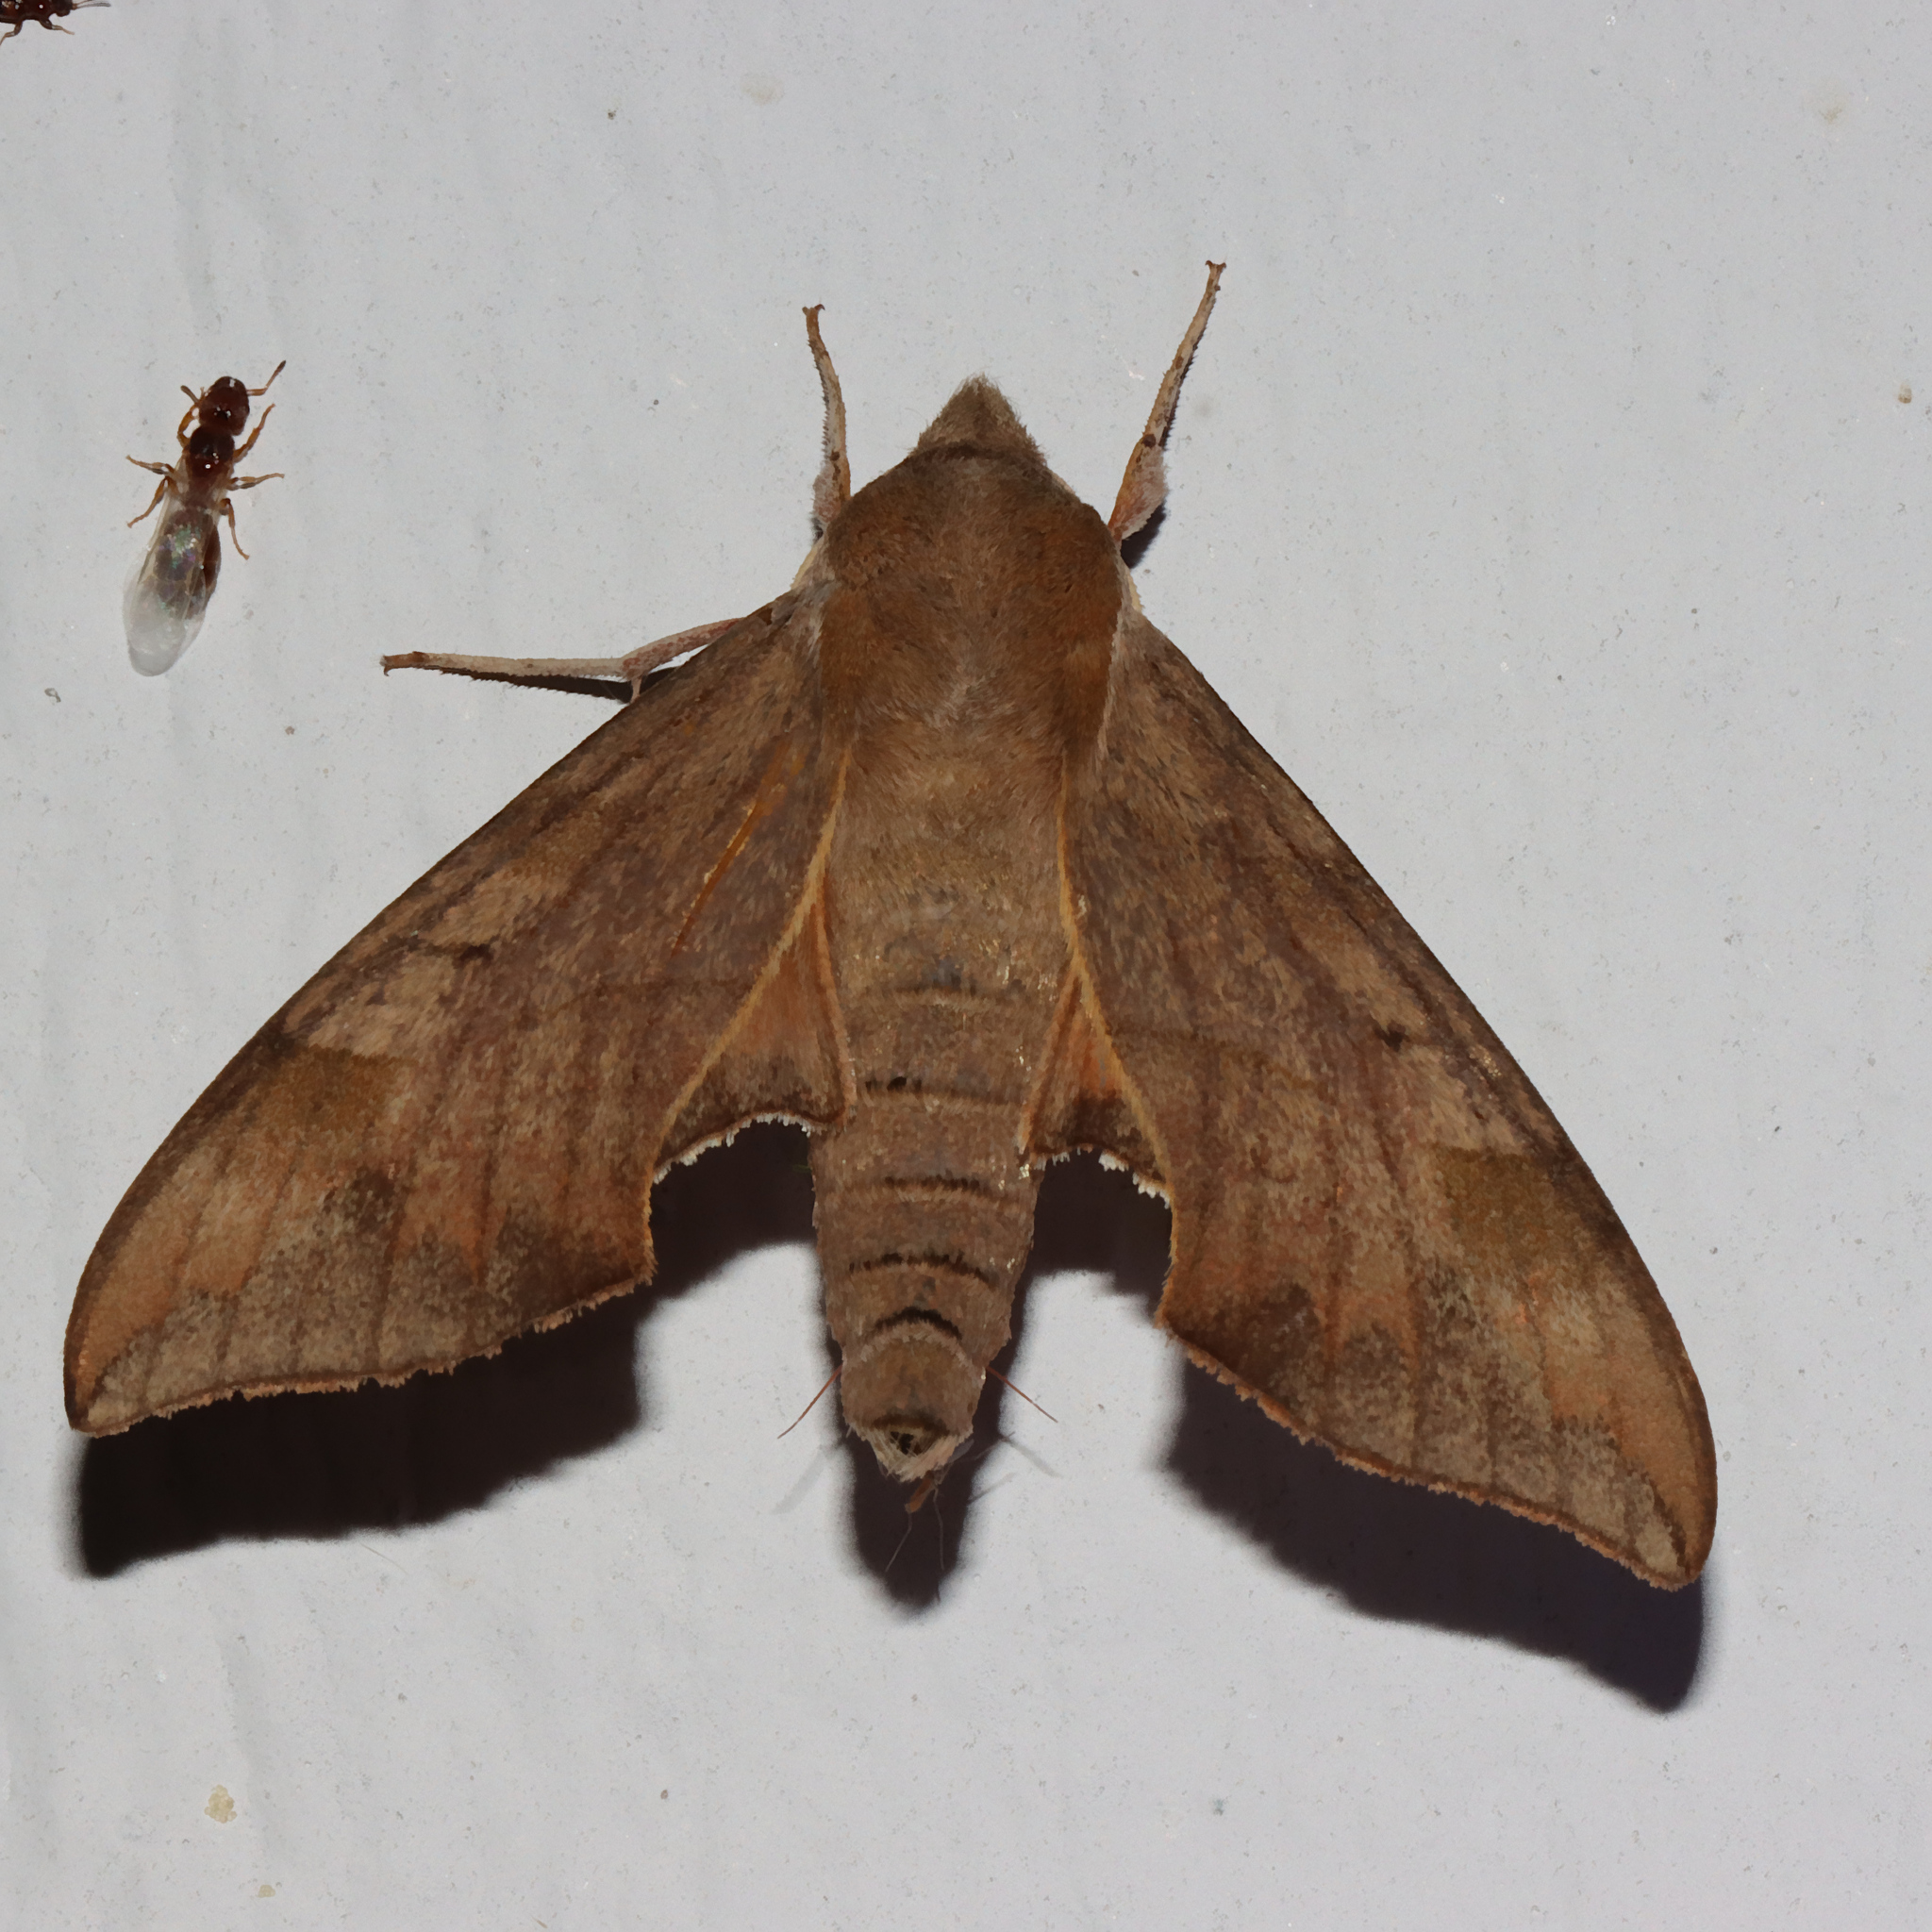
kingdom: Animalia
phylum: Arthropoda
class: Insecta
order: Lepidoptera
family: Sphingidae
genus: Darapsa
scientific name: Darapsa myron
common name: Hog sphinx
